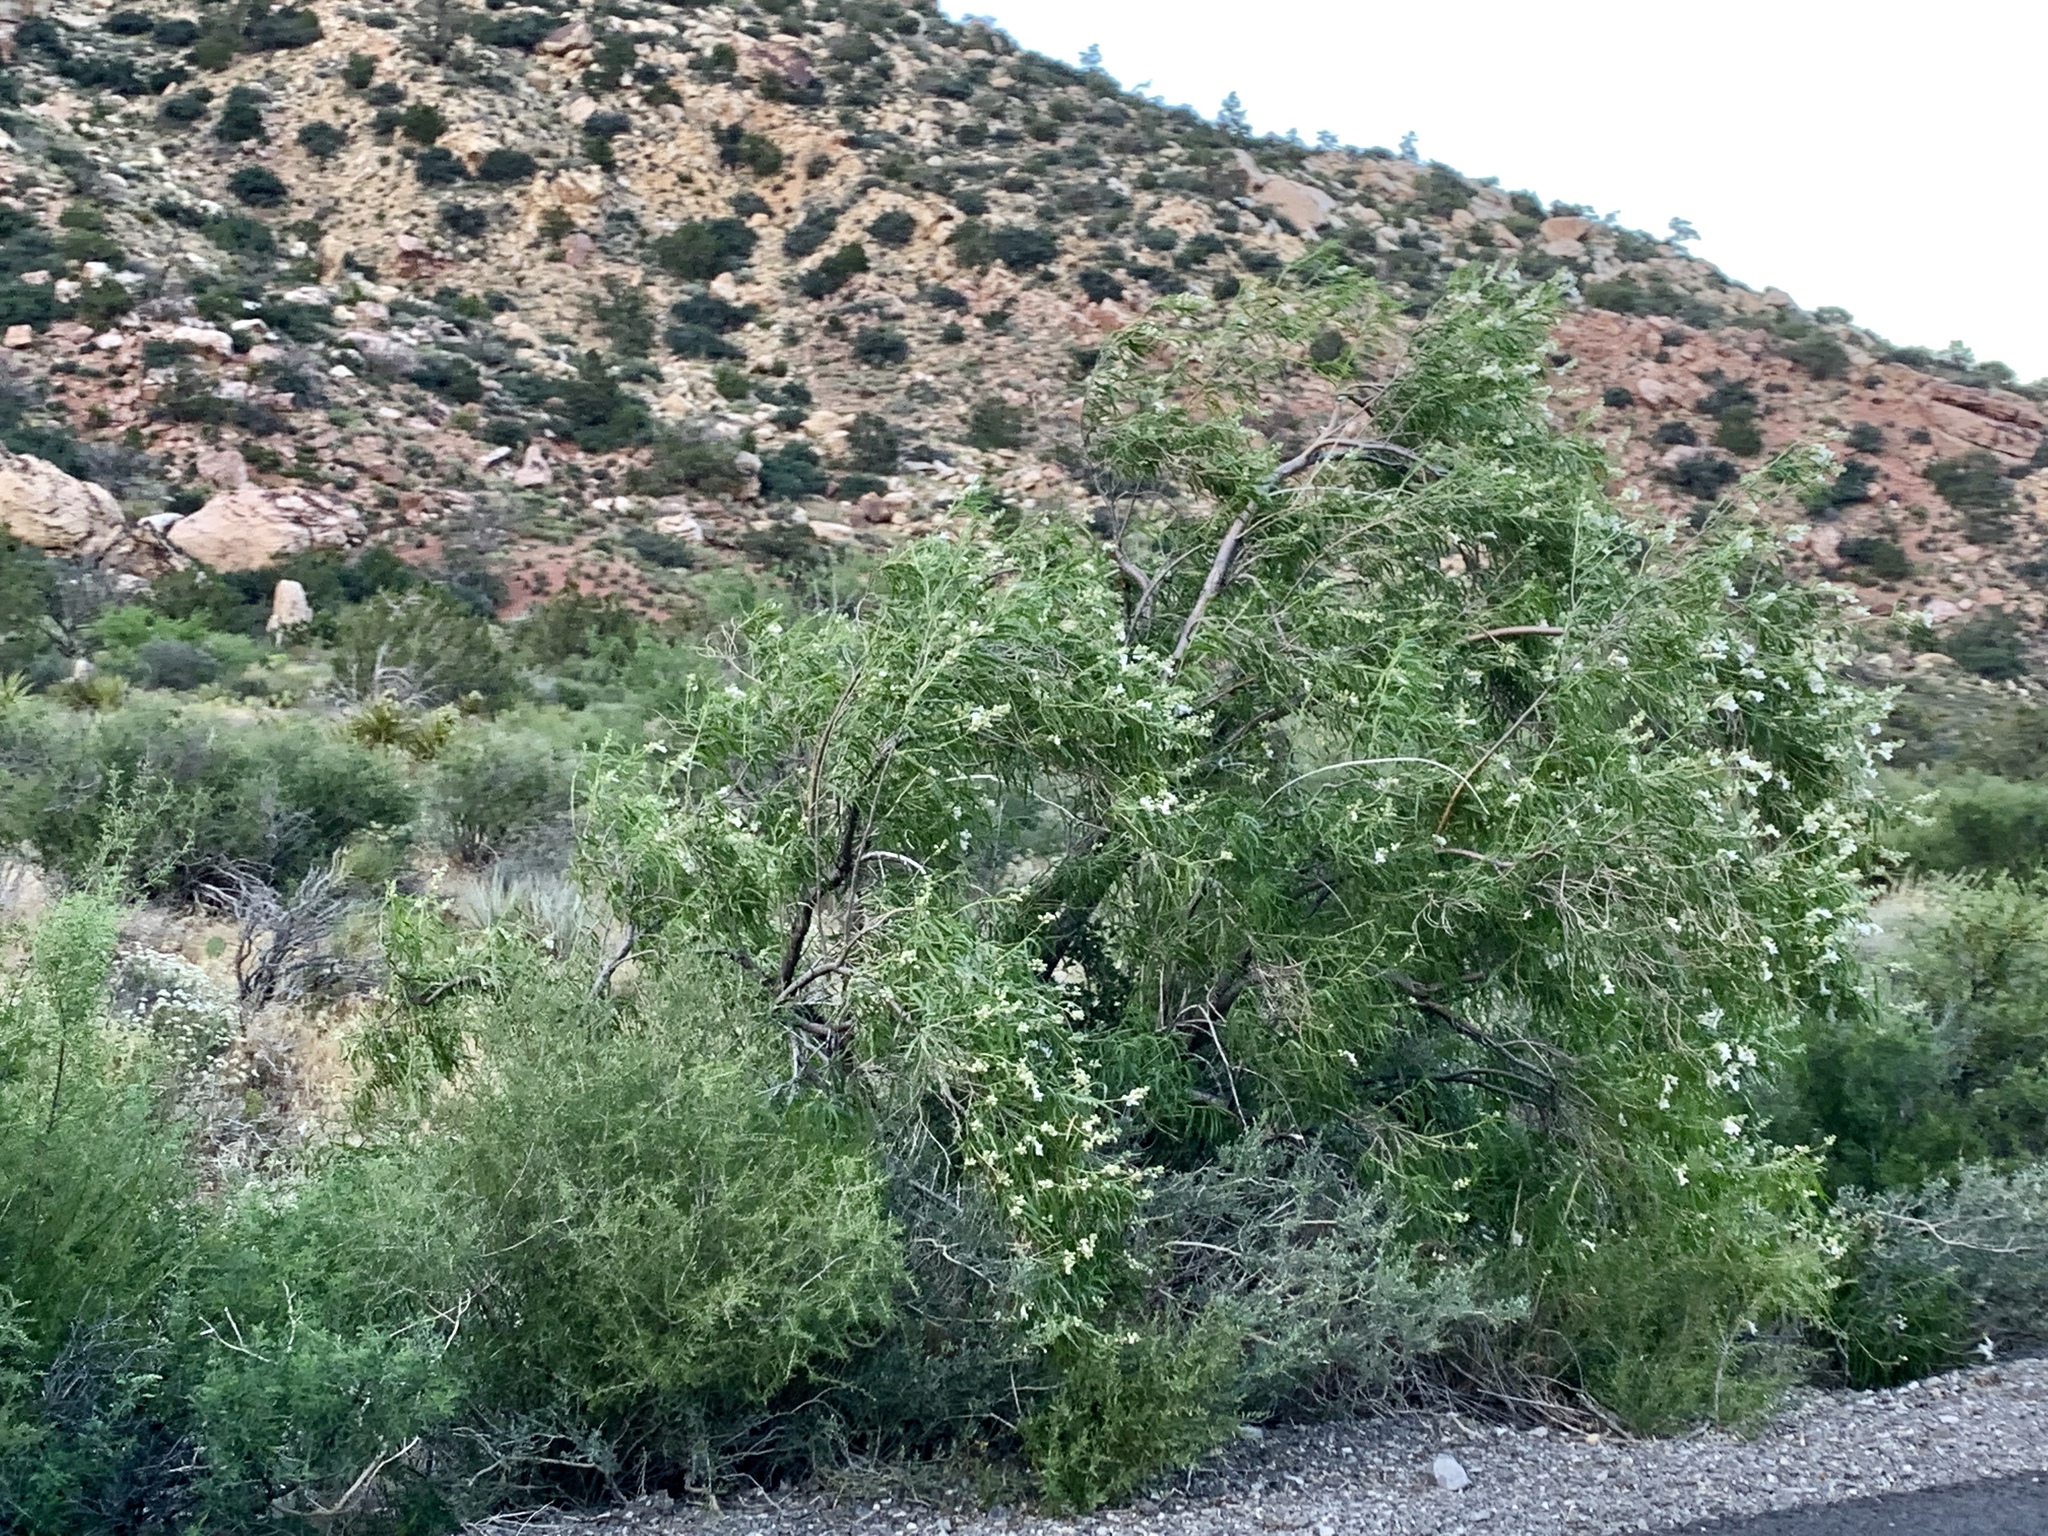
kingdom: Plantae
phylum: Tracheophyta
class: Magnoliopsida
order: Lamiales
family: Bignoniaceae
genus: Chilopsis
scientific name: Chilopsis linearis
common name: Desert-willow
